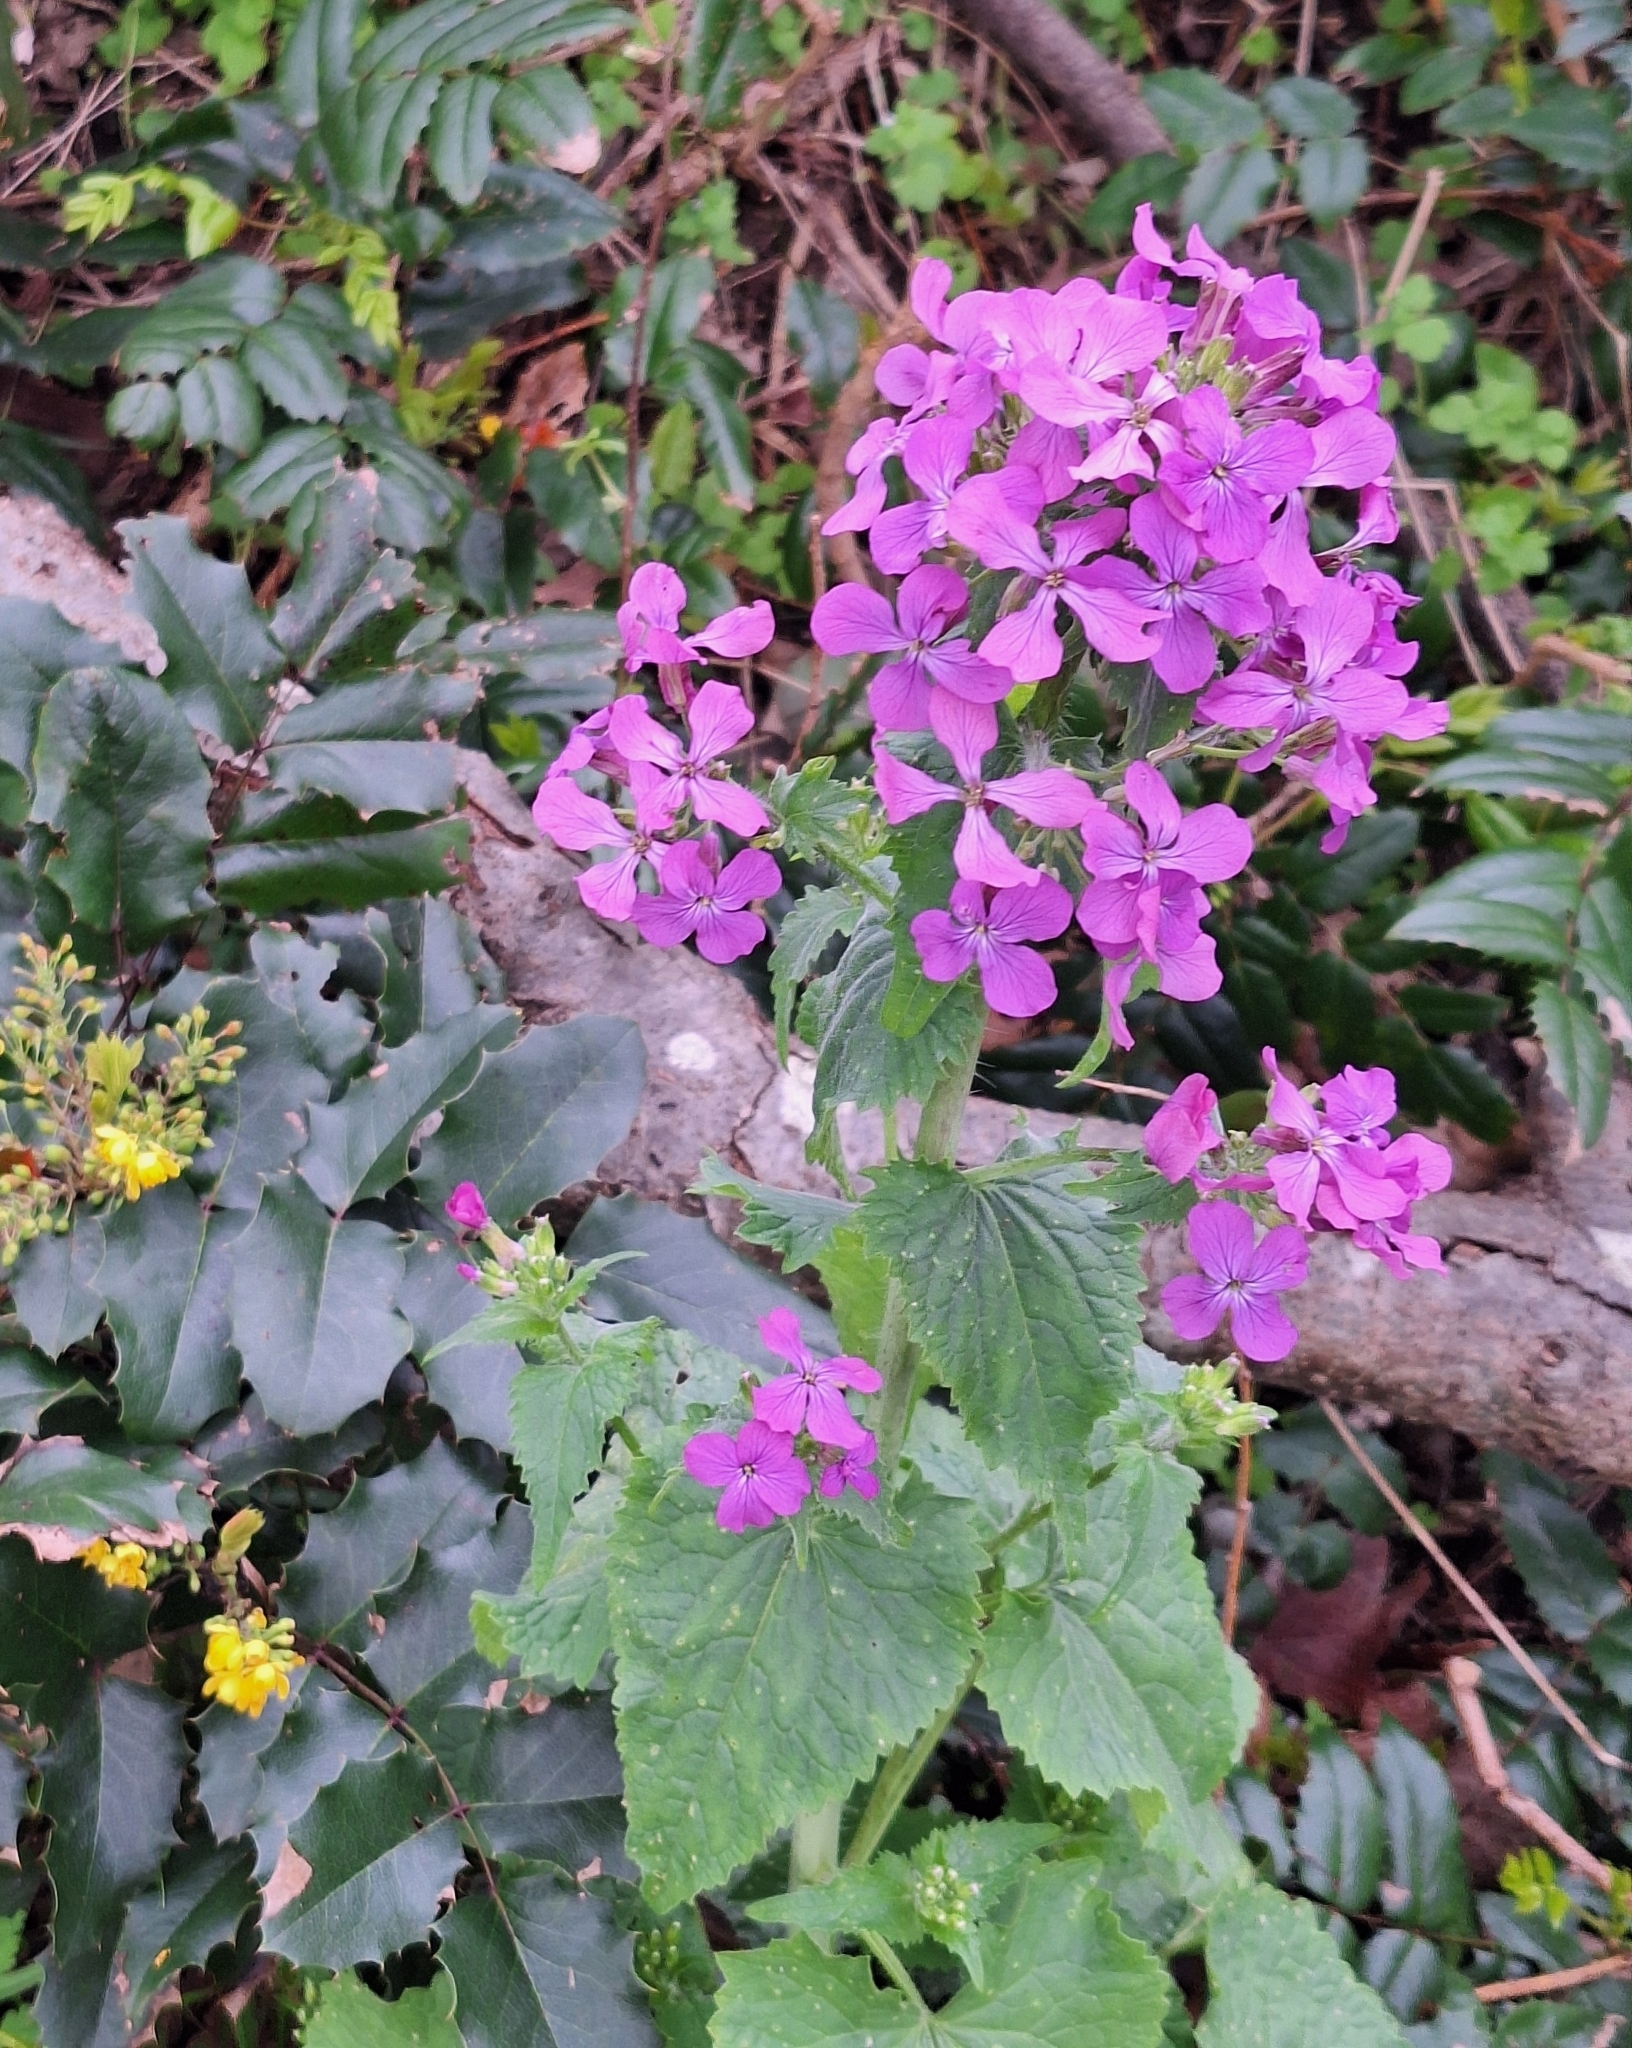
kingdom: Plantae
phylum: Tracheophyta
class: Magnoliopsida
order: Brassicales
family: Brassicaceae
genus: Lunaria
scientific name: Lunaria annua
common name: Honesty
